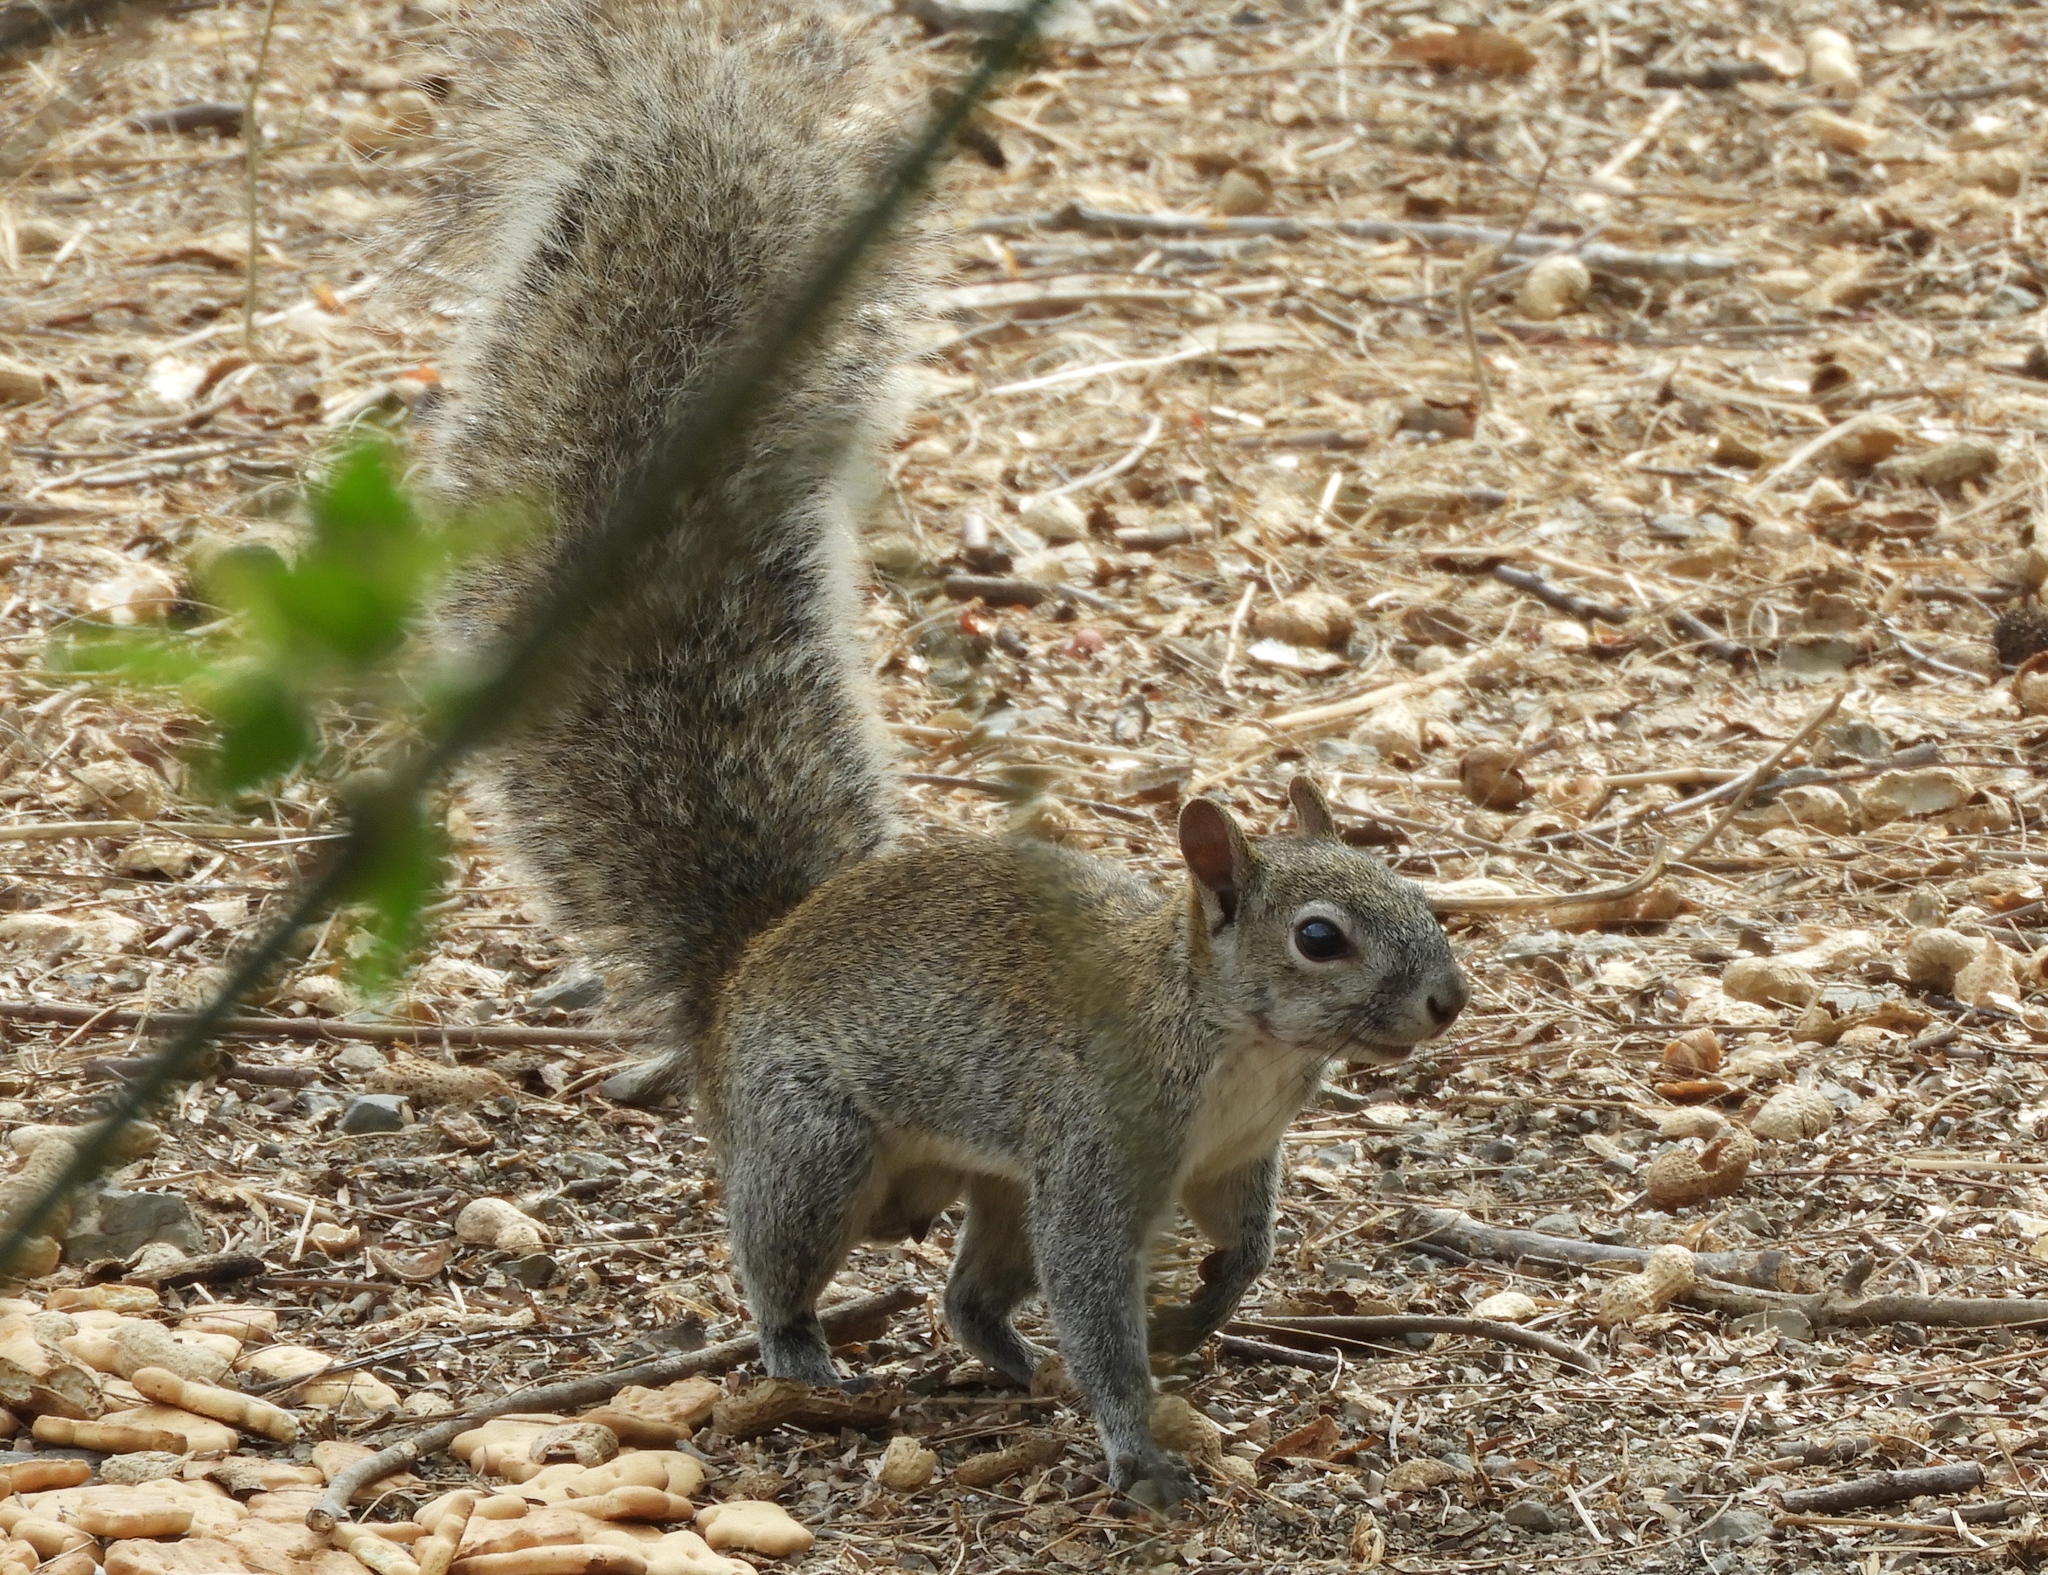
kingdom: Animalia
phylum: Chordata
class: Mammalia
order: Rodentia
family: Sciuridae
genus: Sciurus
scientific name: Sciurus colliaei
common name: Collie's squirrel
